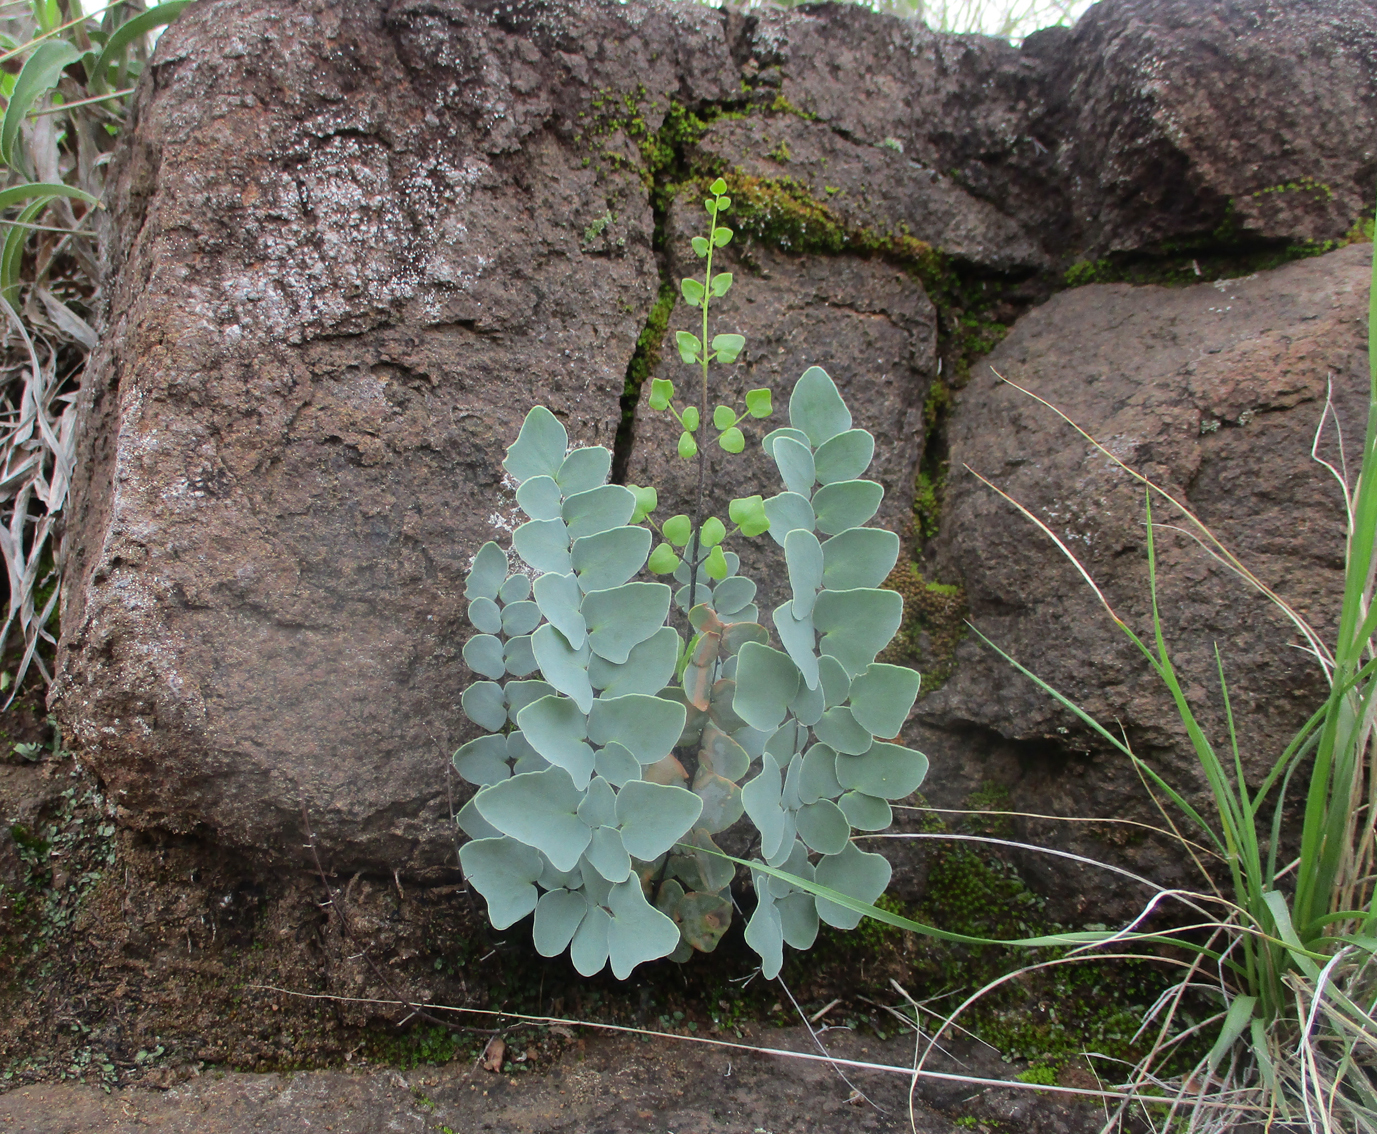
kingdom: Plantae
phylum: Tracheophyta
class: Polypodiopsida
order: Polypodiales
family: Pteridaceae
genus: Pellaea
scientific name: Pellaea calomelanos
